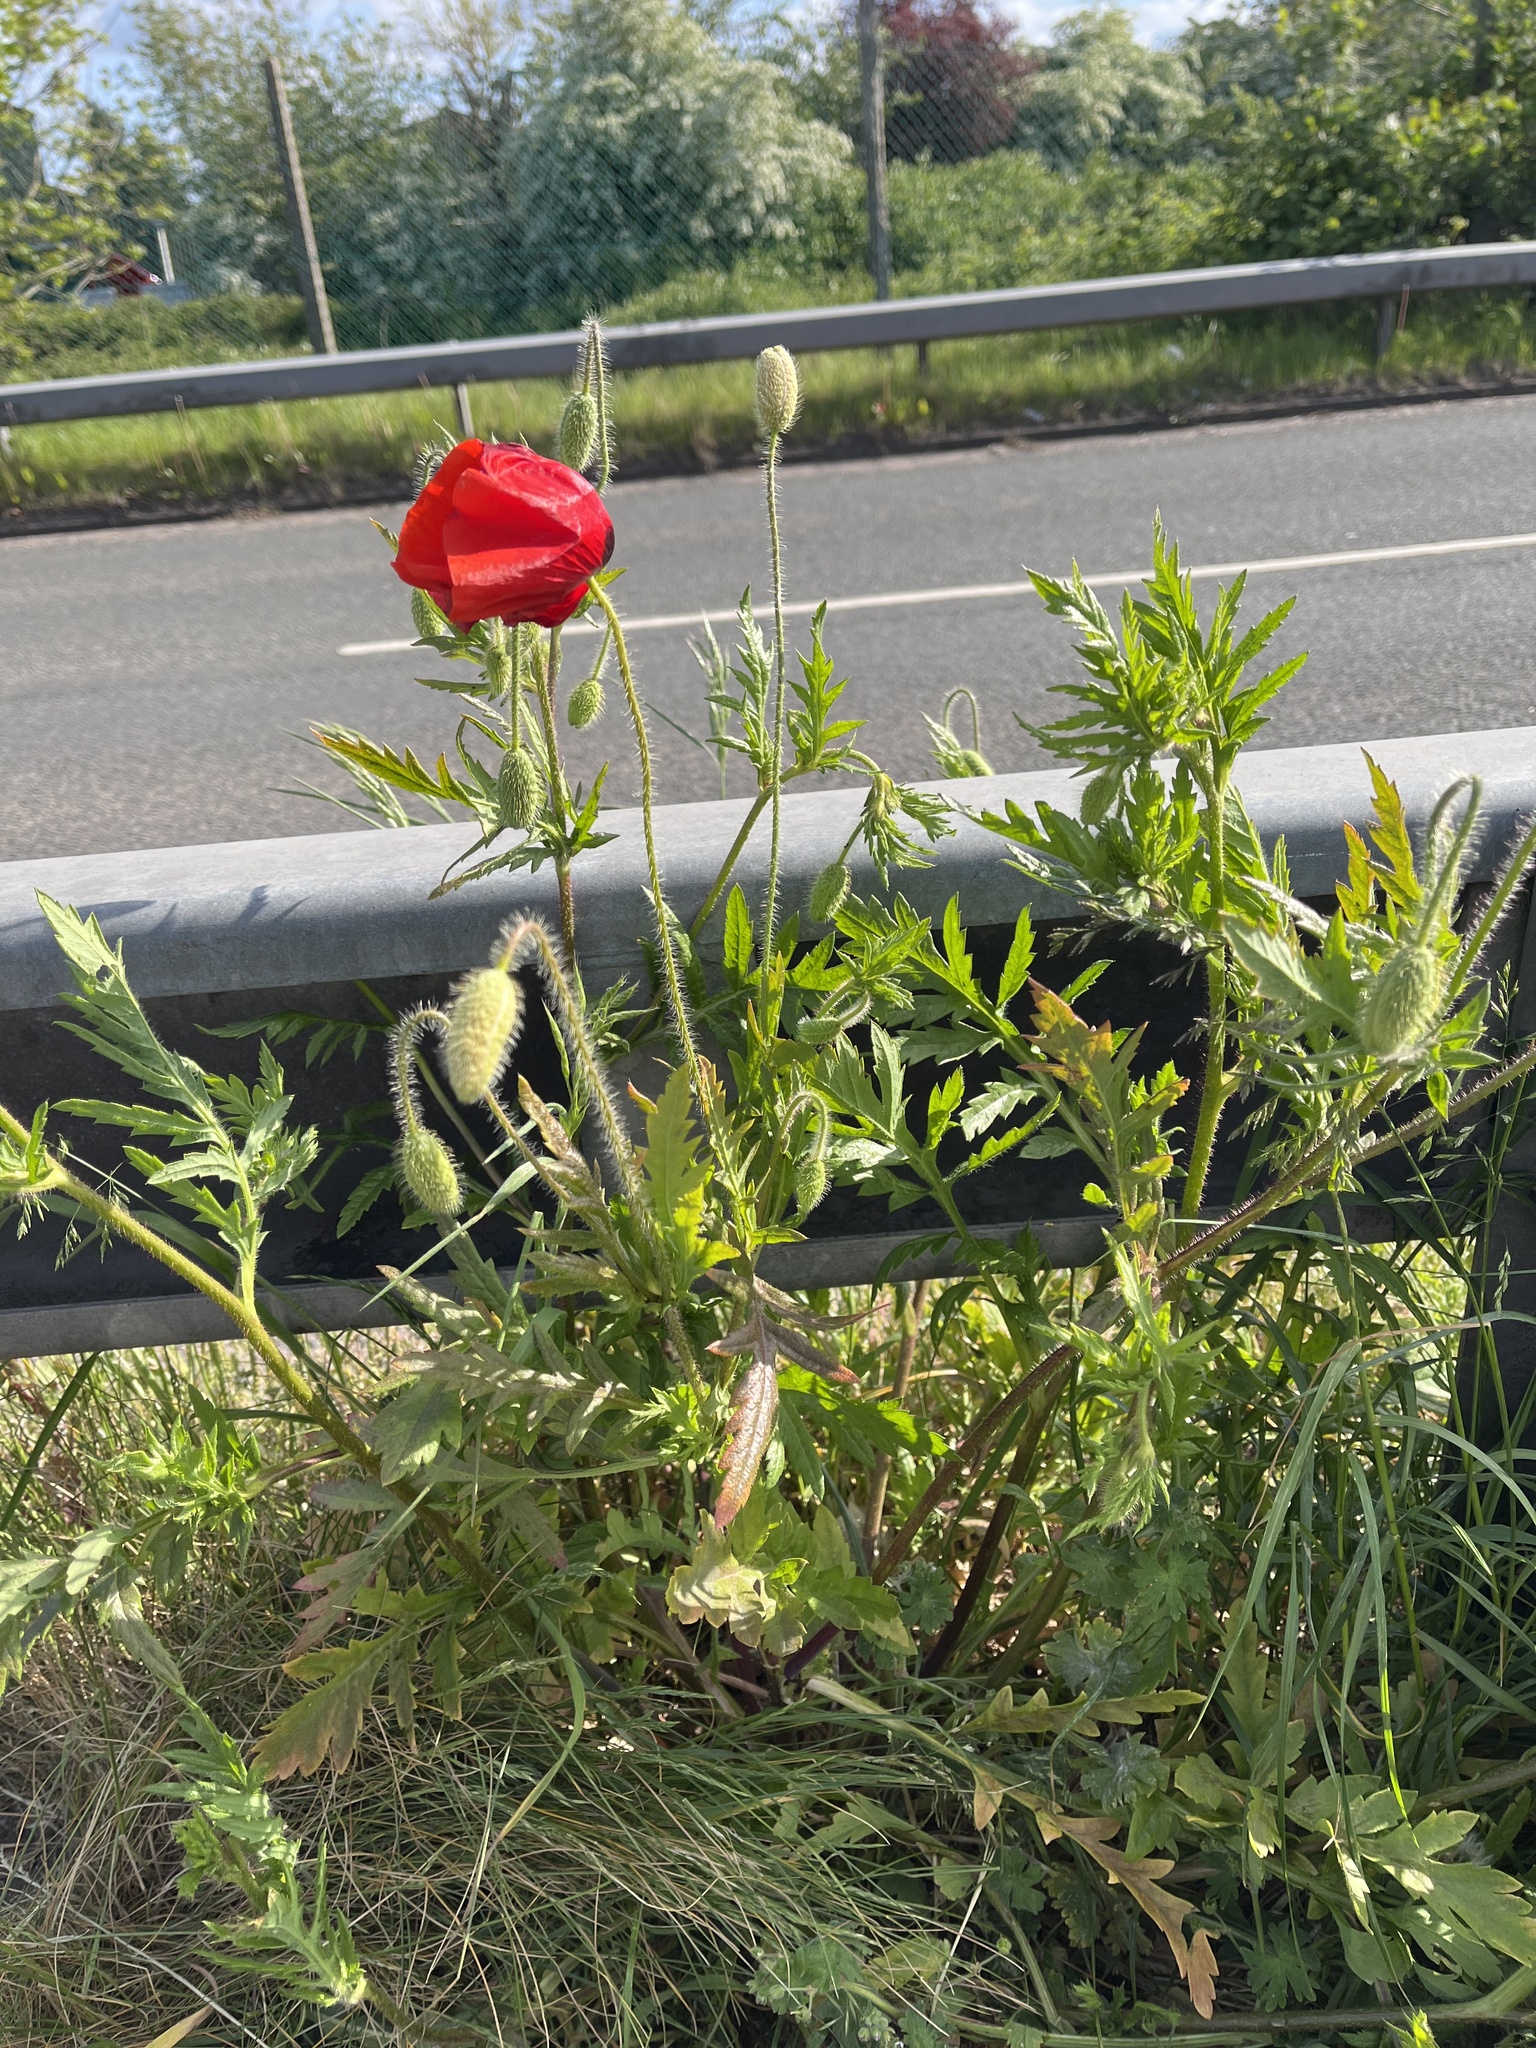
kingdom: Plantae
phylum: Tracheophyta
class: Magnoliopsida
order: Ranunculales
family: Papaveraceae
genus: Papaver
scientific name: Papaver rhoeas
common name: Corn poppy
